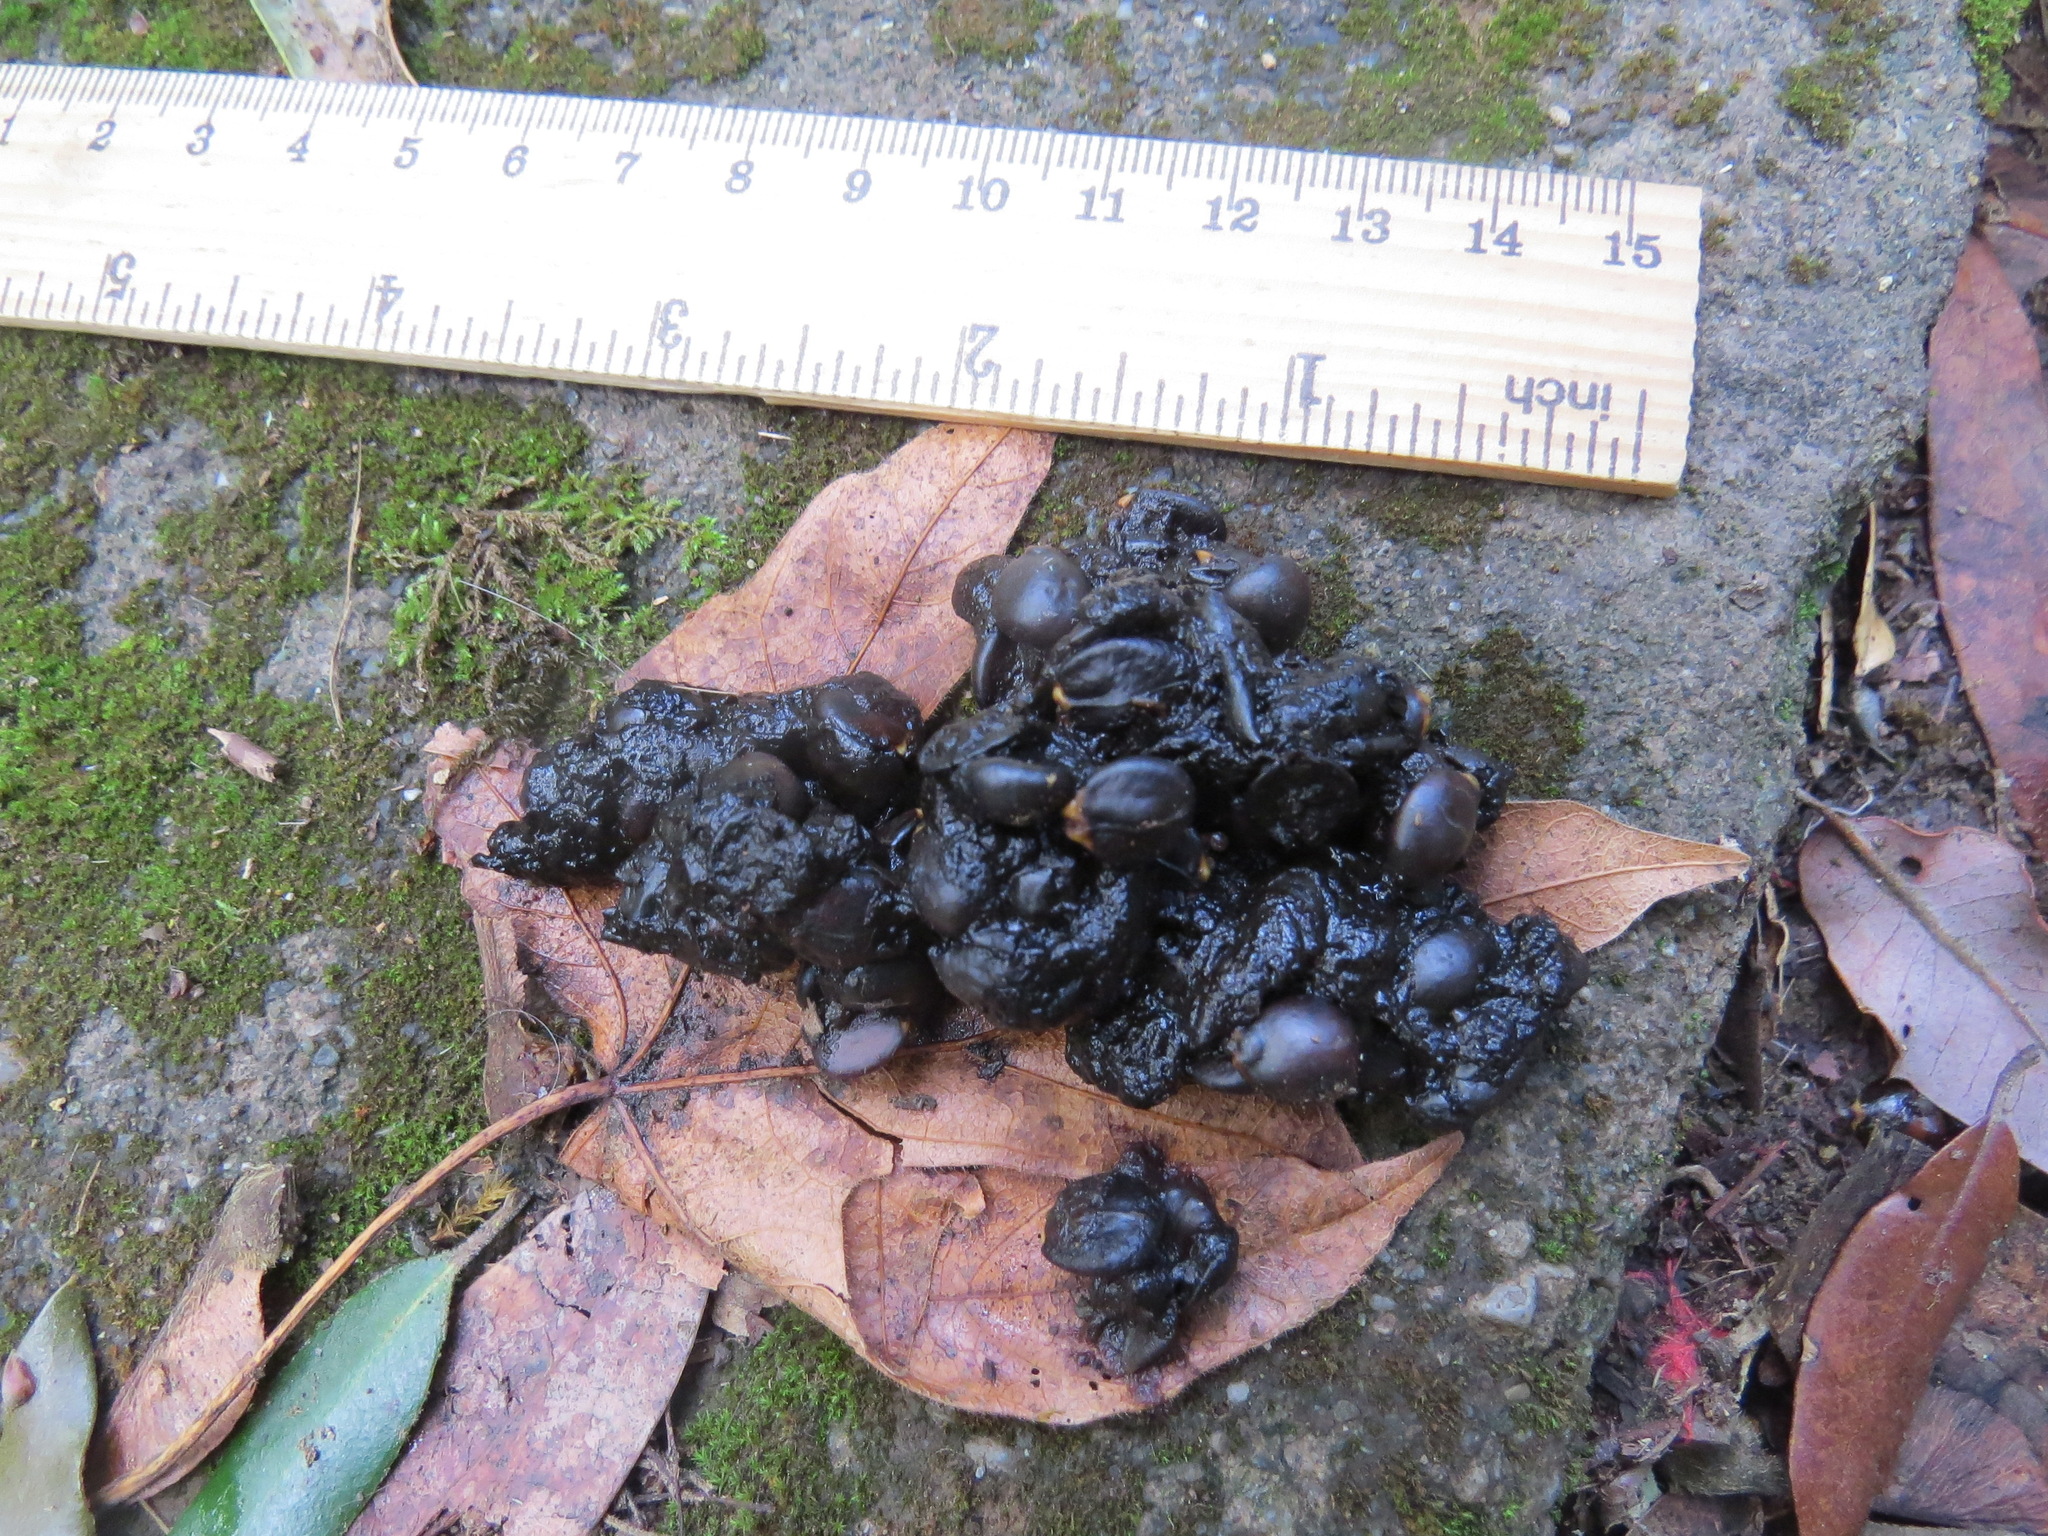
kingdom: Animalia
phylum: Chordata
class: Mammalia
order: Carnivora
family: Canidae
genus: Urocyon
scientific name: Urocyon cinereoargenteus
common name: Gray fox
